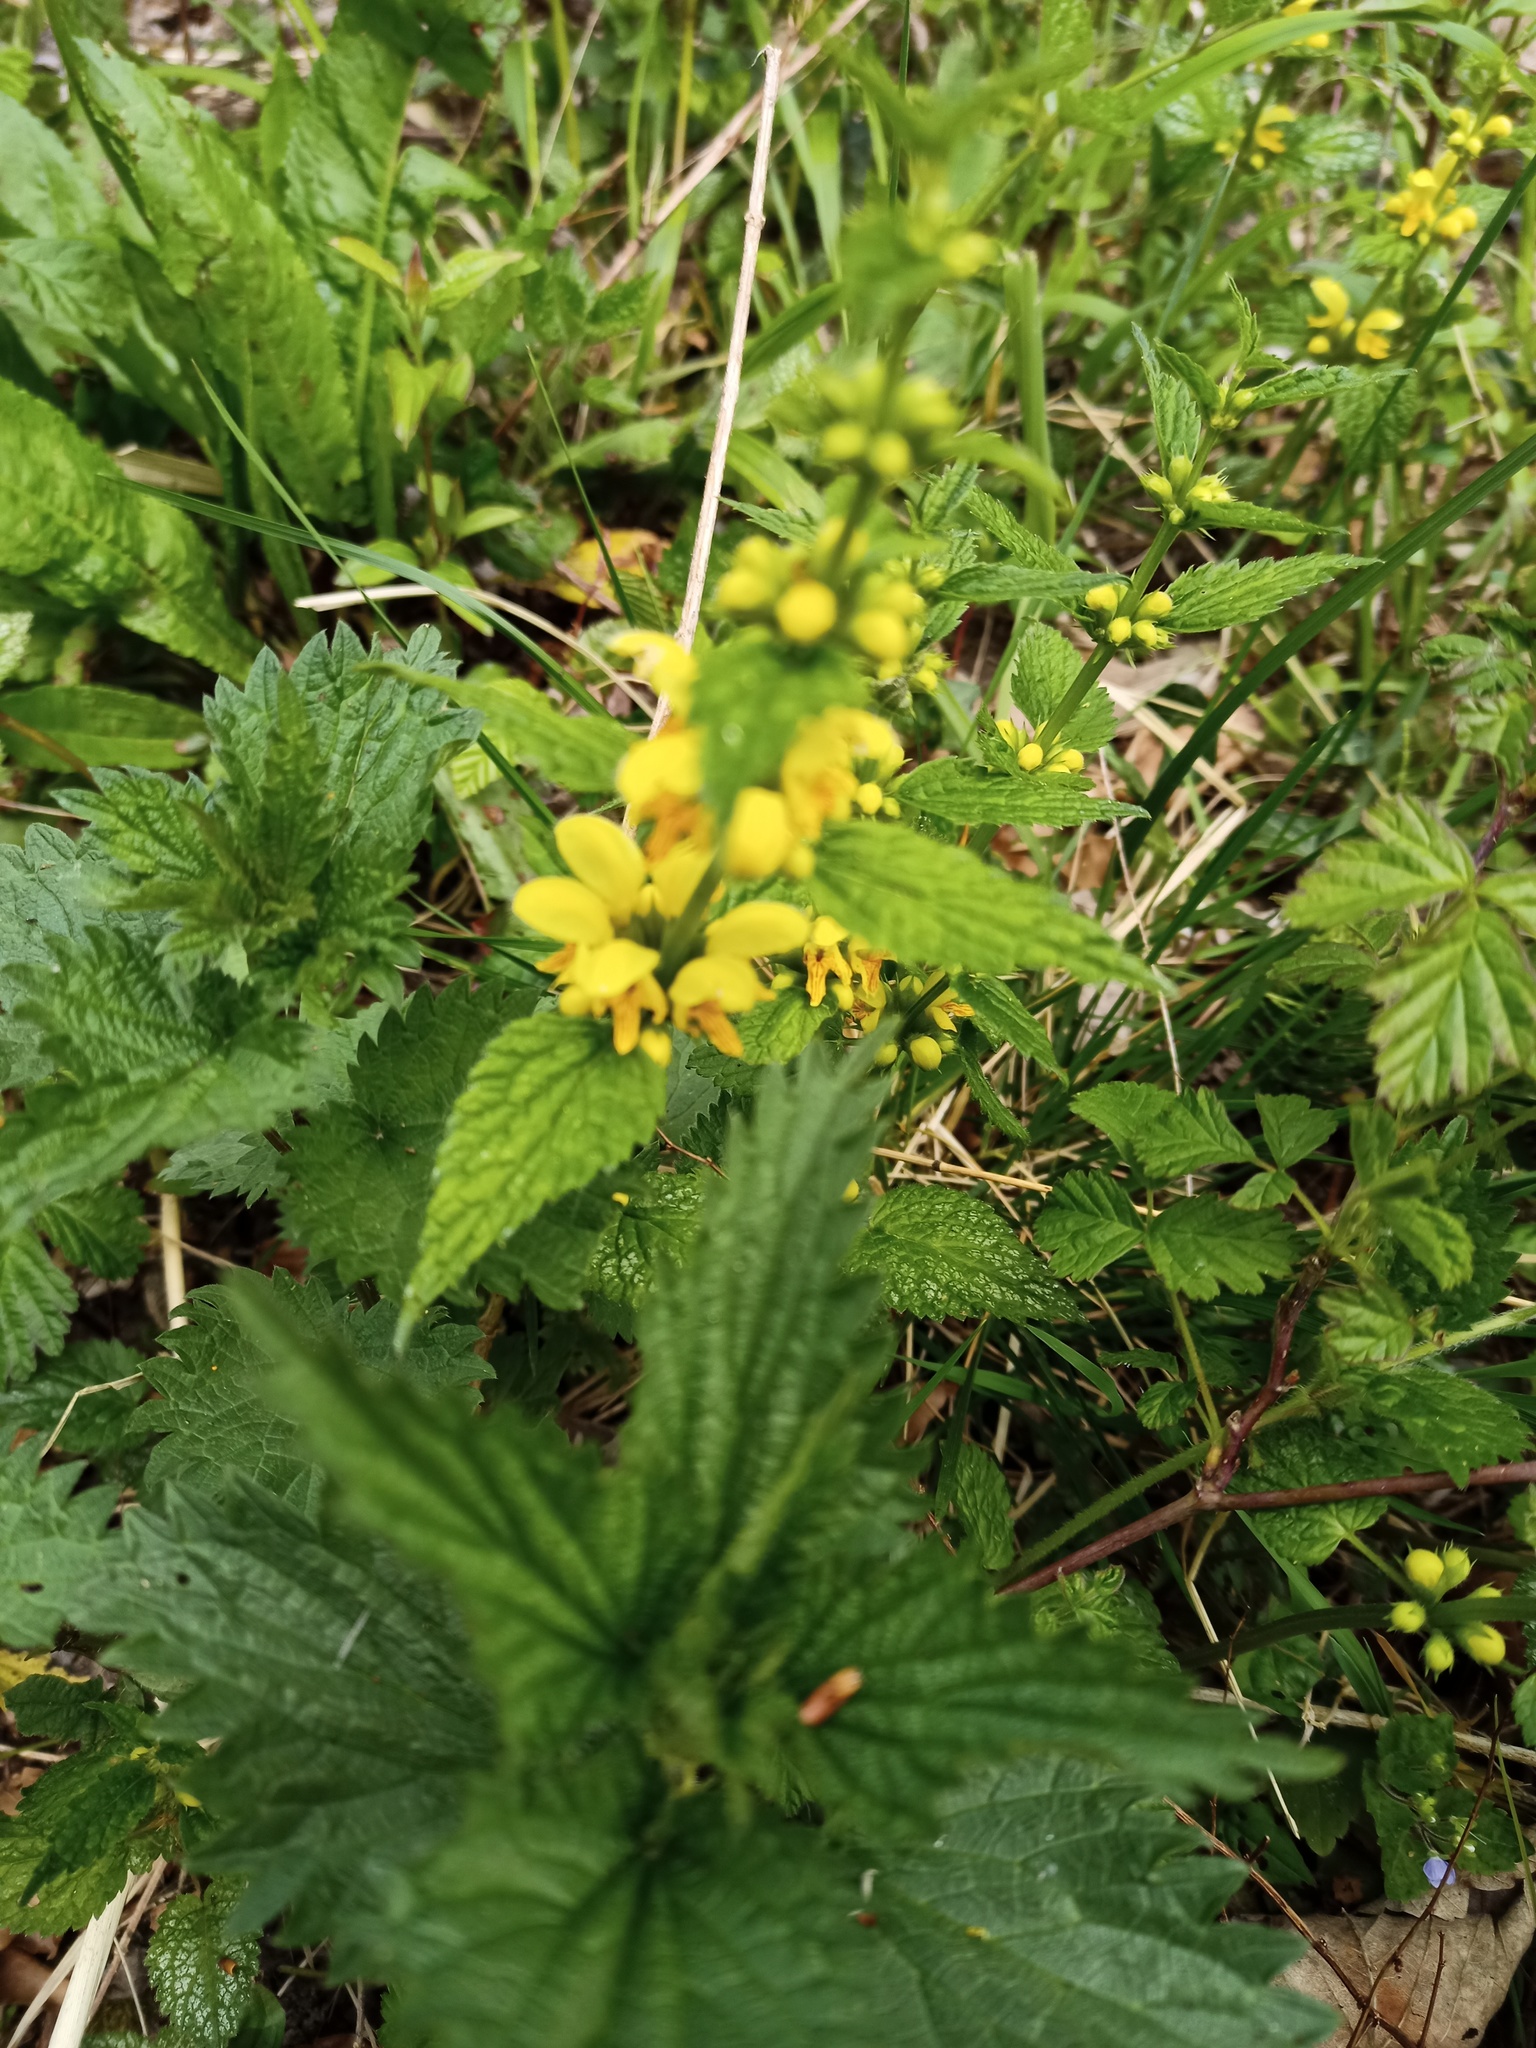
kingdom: Plantae
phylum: Tracheophyta
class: Magnoliopsida
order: Lamiales
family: Lamiaceae
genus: Lamium
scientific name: Lamium galeobdolon
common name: Yellow archangel
